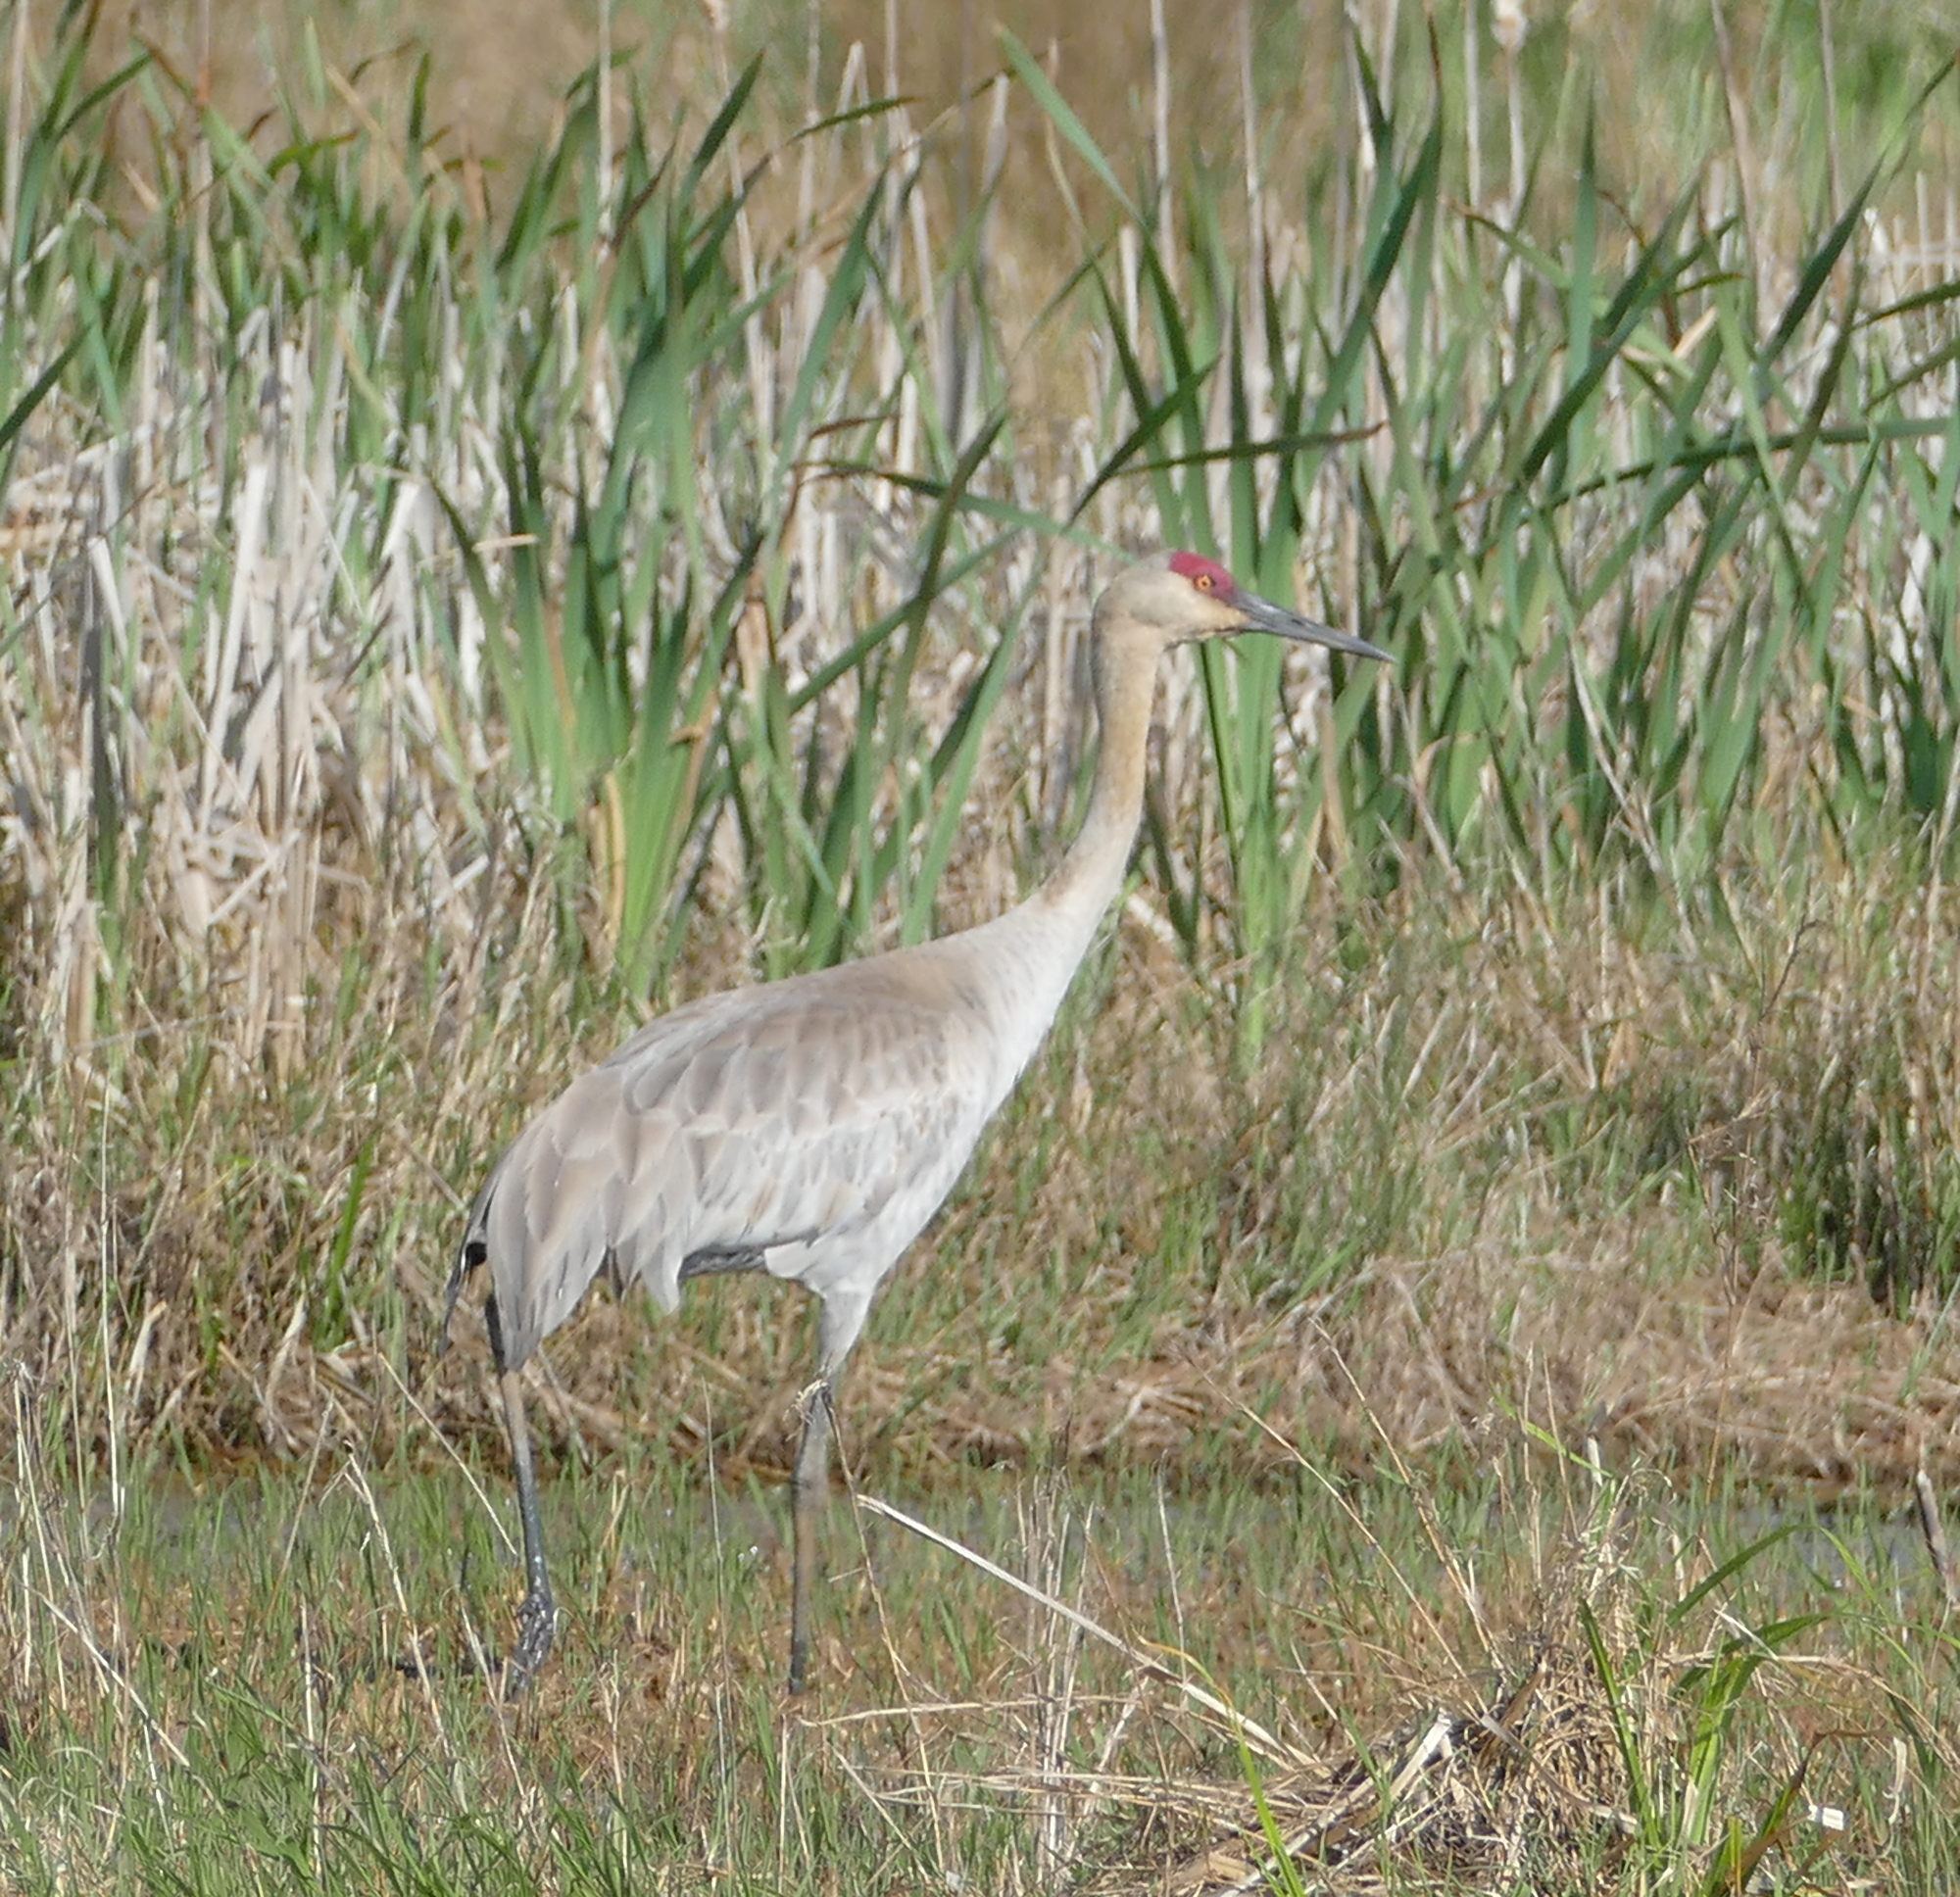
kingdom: Animalia
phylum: Chordata
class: Aves
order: Gruiformes
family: Gruidae
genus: Grus
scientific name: Grus canadensis
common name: Sandhill crane
